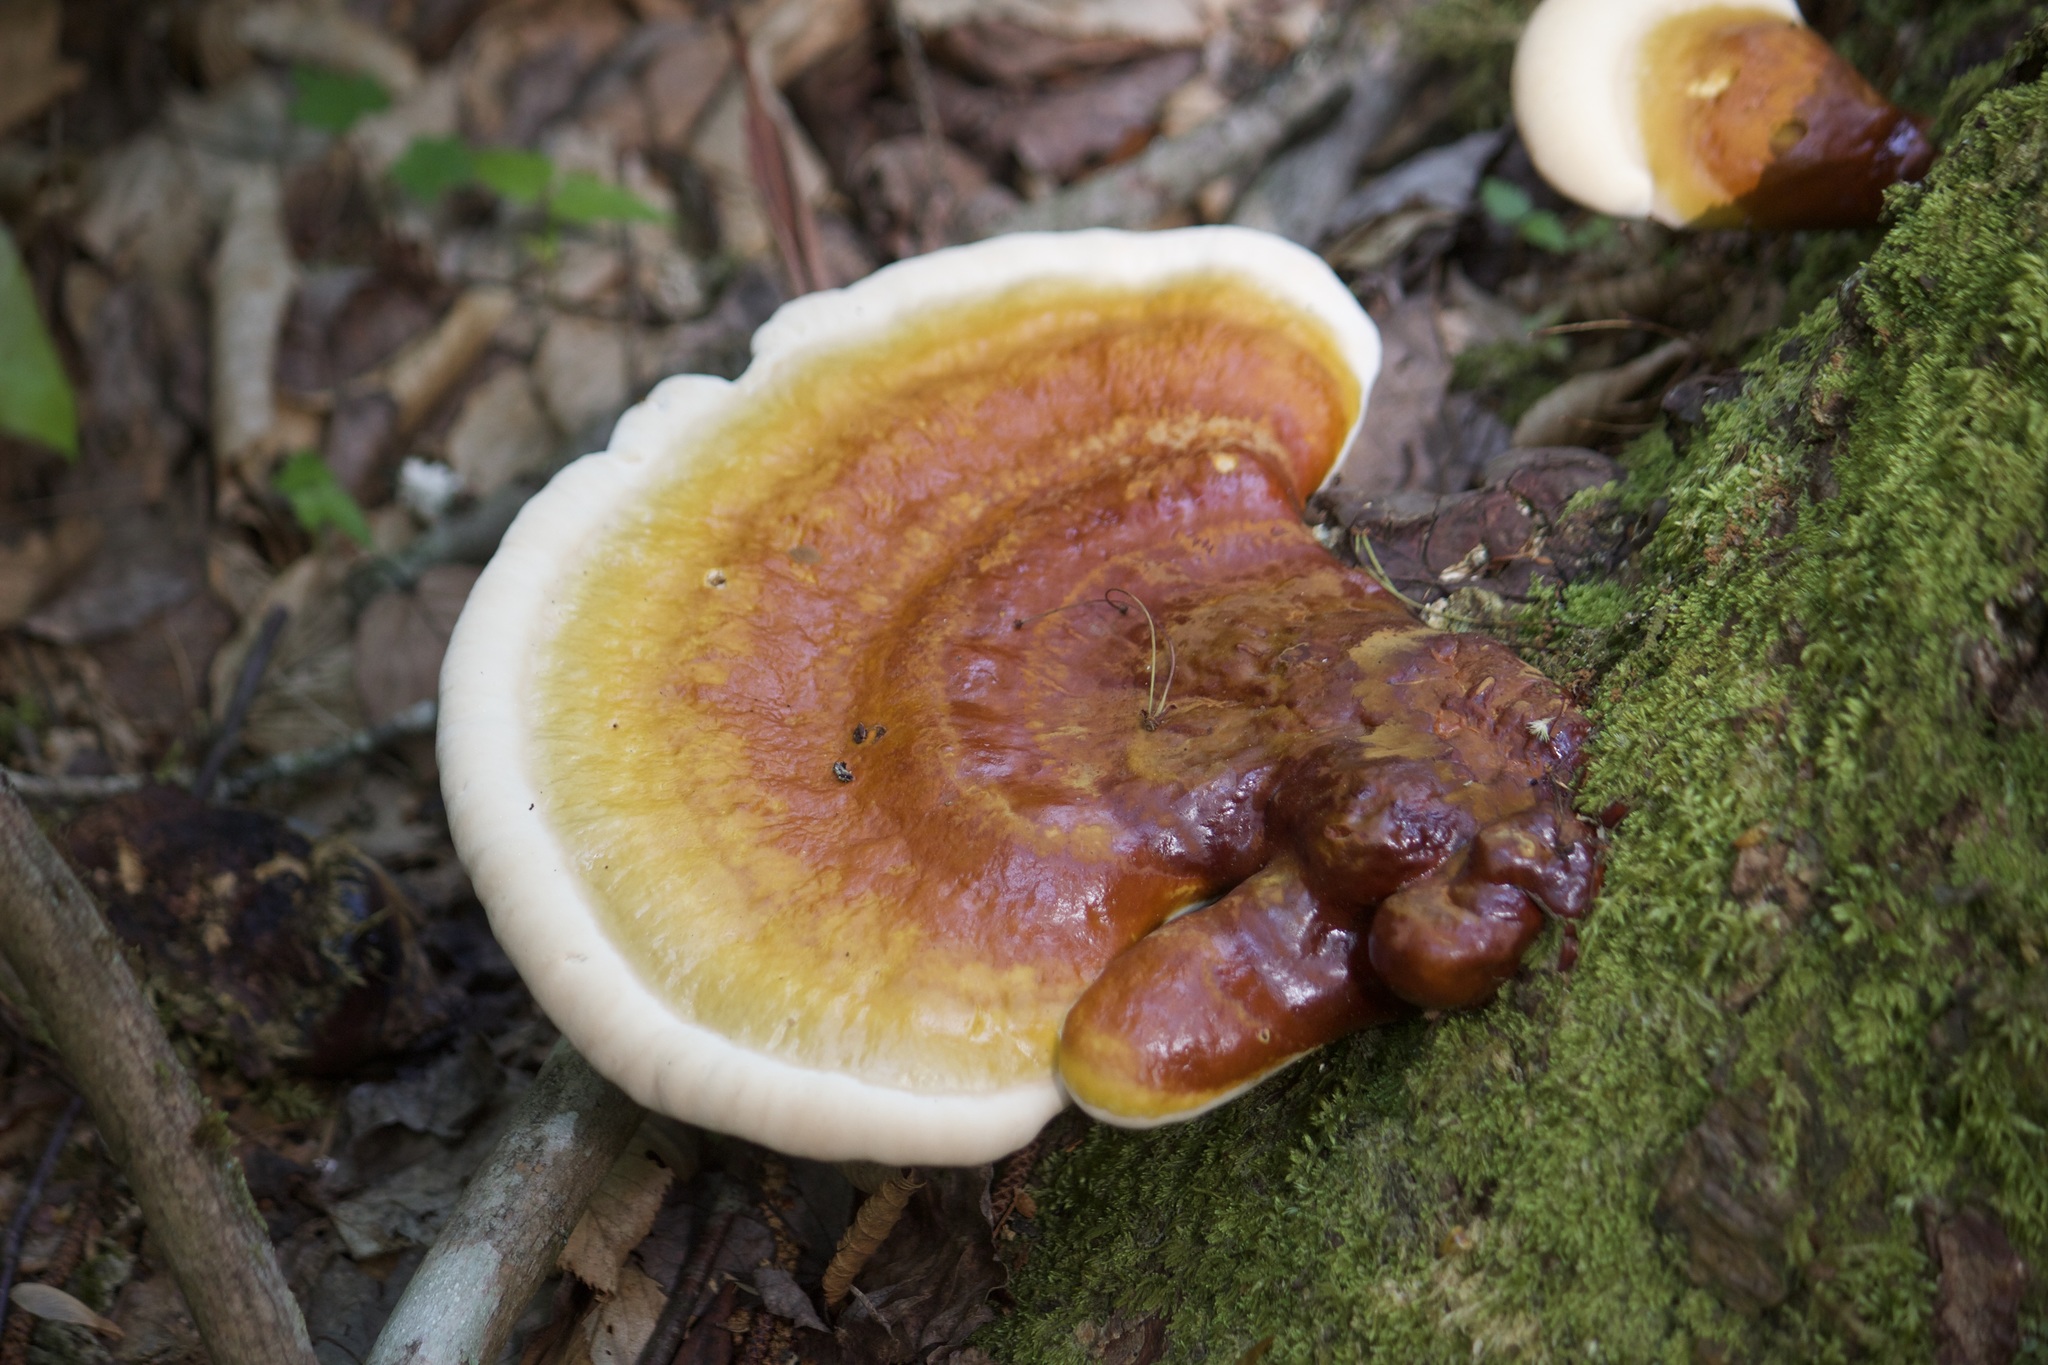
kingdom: Fungi
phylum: Basidiomycota
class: Agaricomycetes
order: Polyporales
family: Polyporaceae
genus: Ganoderma
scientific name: Ganoderma tsugae
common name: Hemlock varnish shelf
